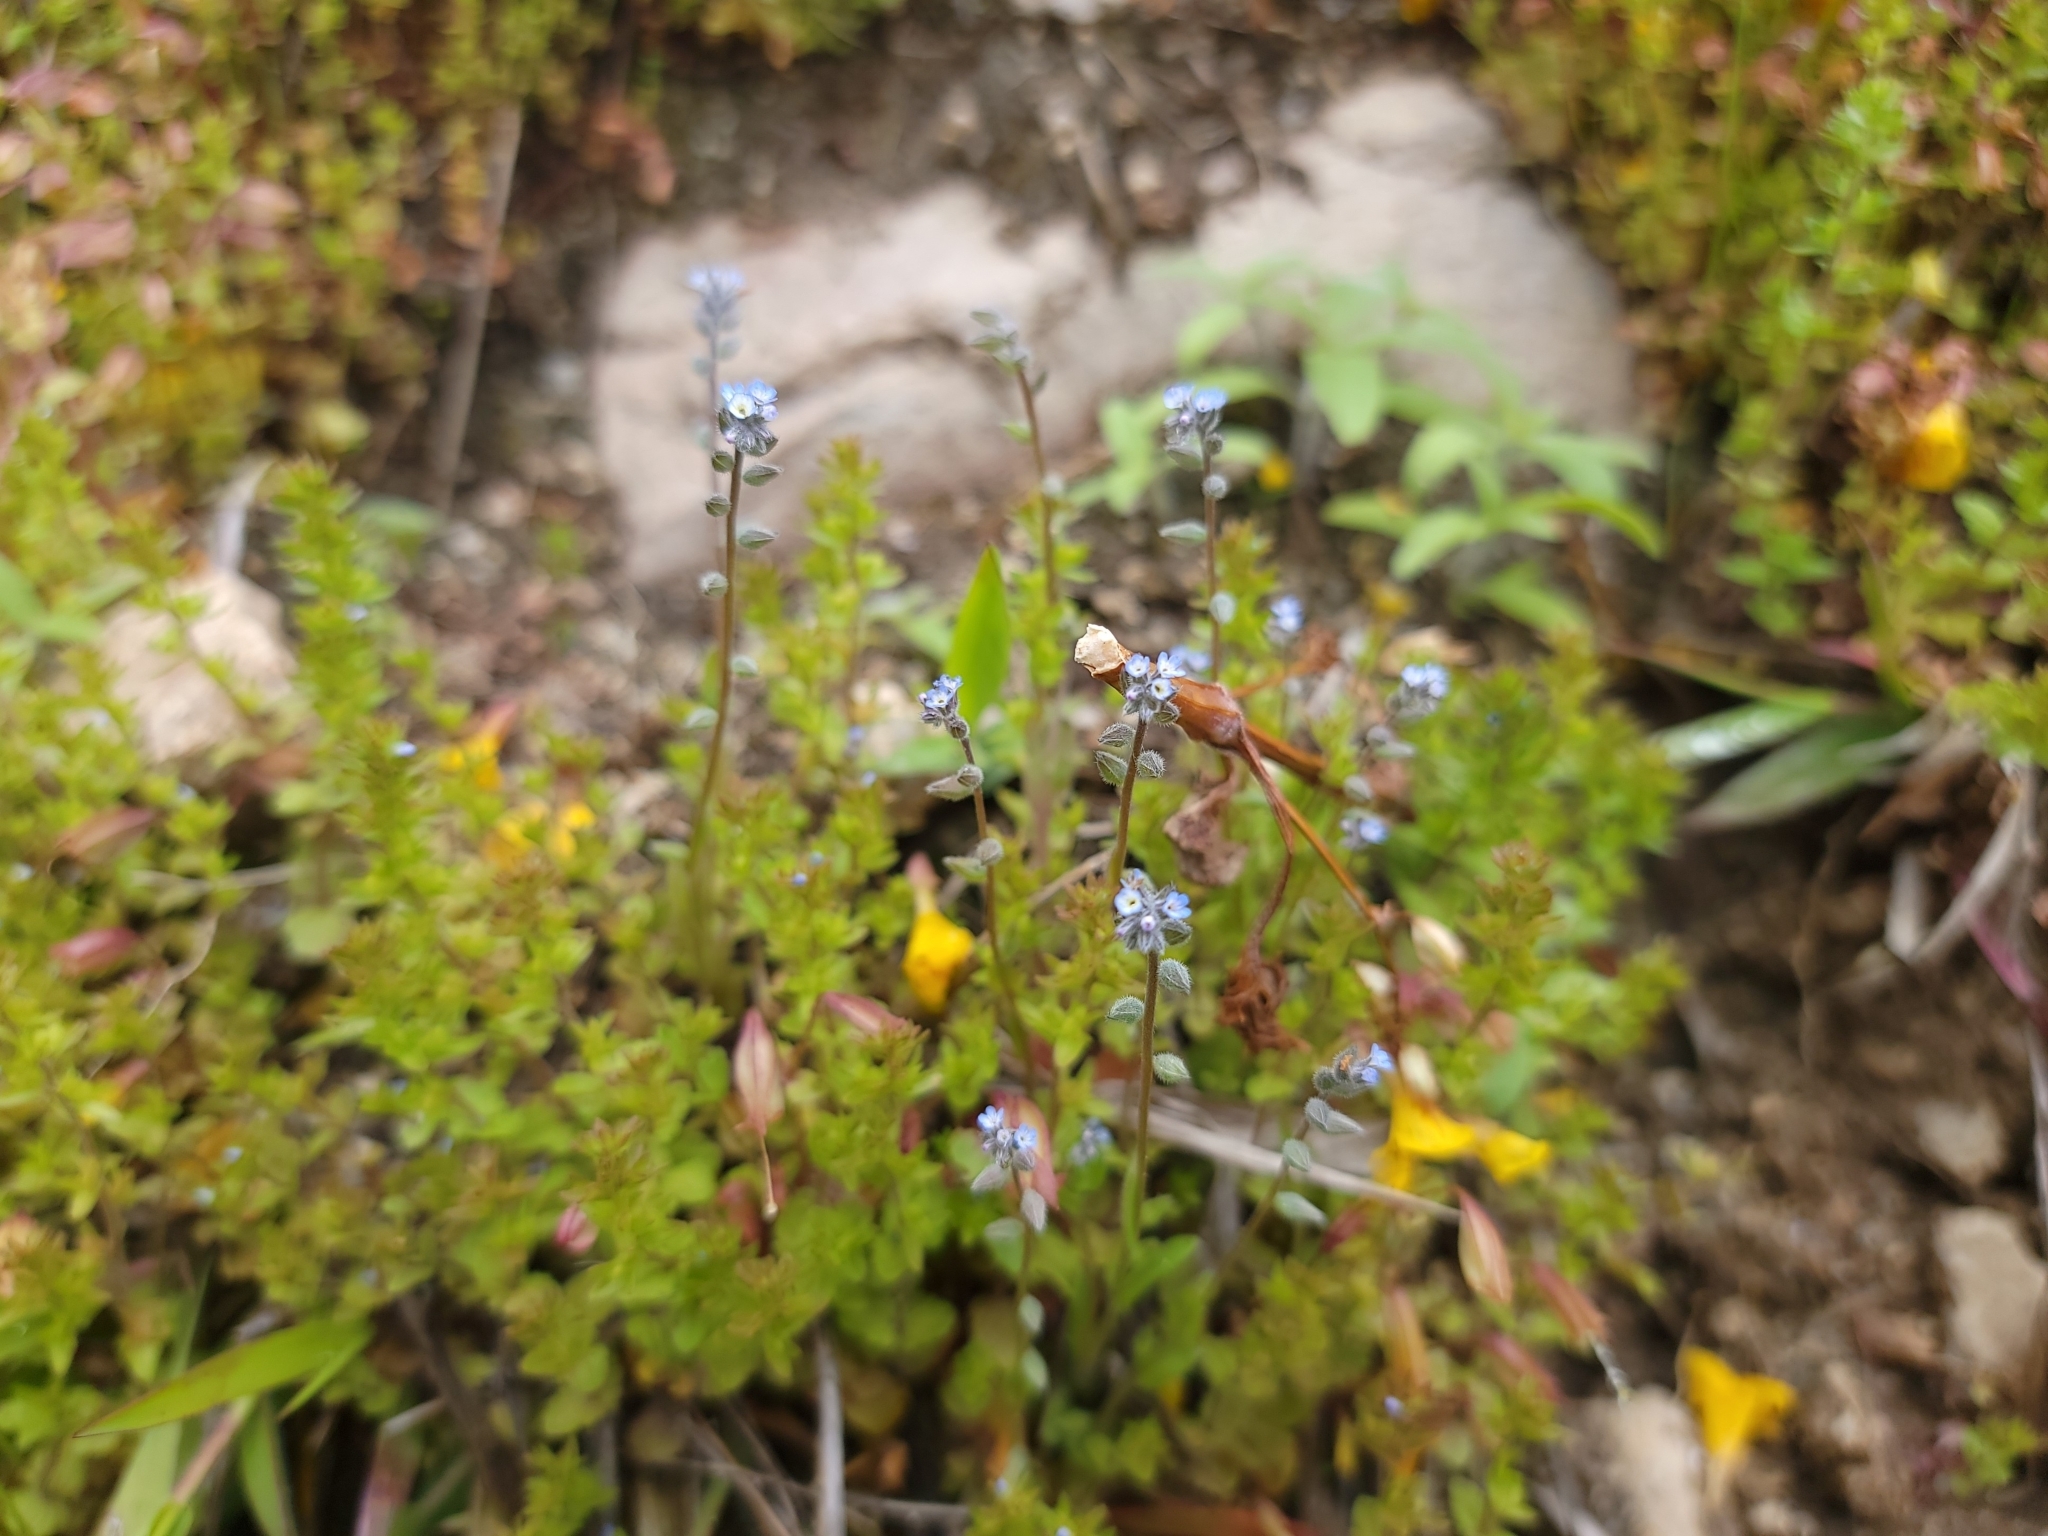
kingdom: Plantae
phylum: Tracheophyta
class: Magnoliopsida
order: Boraginales
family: Boraginaceae
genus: Myosotis
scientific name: Myosotis stricta
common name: Strict forget-me-not
